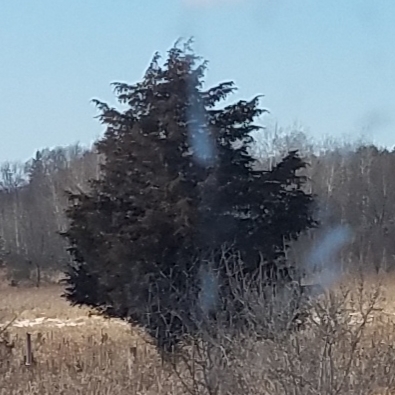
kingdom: Plantae
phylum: Tracheophyta
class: Pinopsida
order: Pinales
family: Cupressaceae
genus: Juniperus
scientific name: Juniperus virginiana
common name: Red juniper
